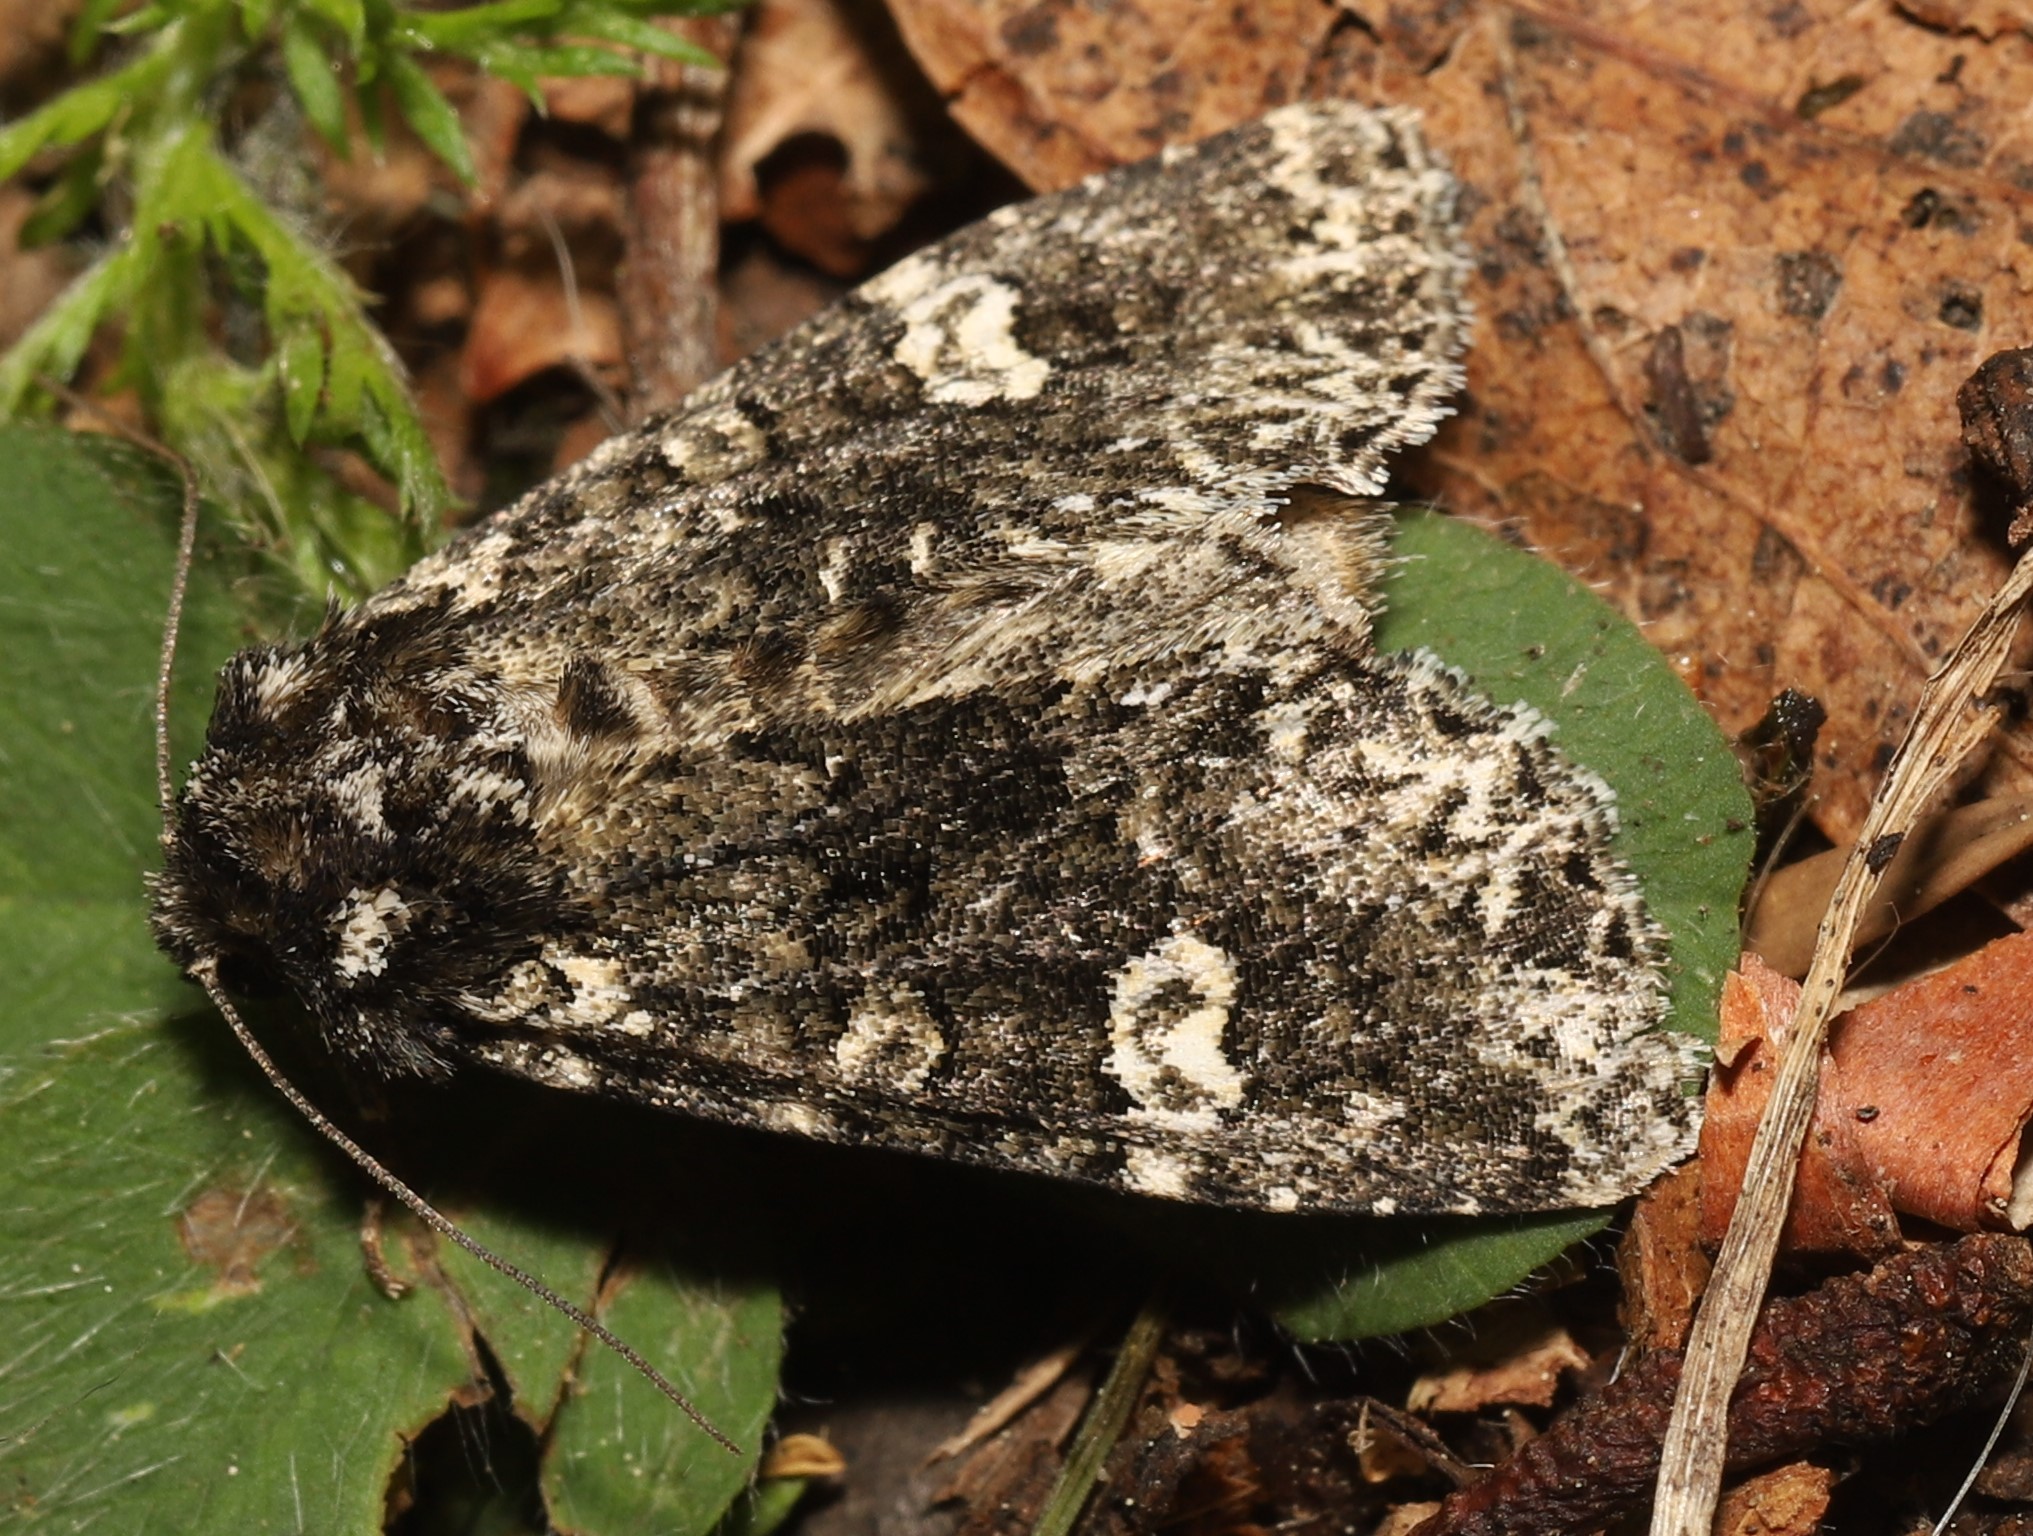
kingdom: Animalia
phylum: Arthropoda
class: Insecta
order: Lepidoptera
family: Noctuidae
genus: Melanchra
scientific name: Melanchra adjuncta
